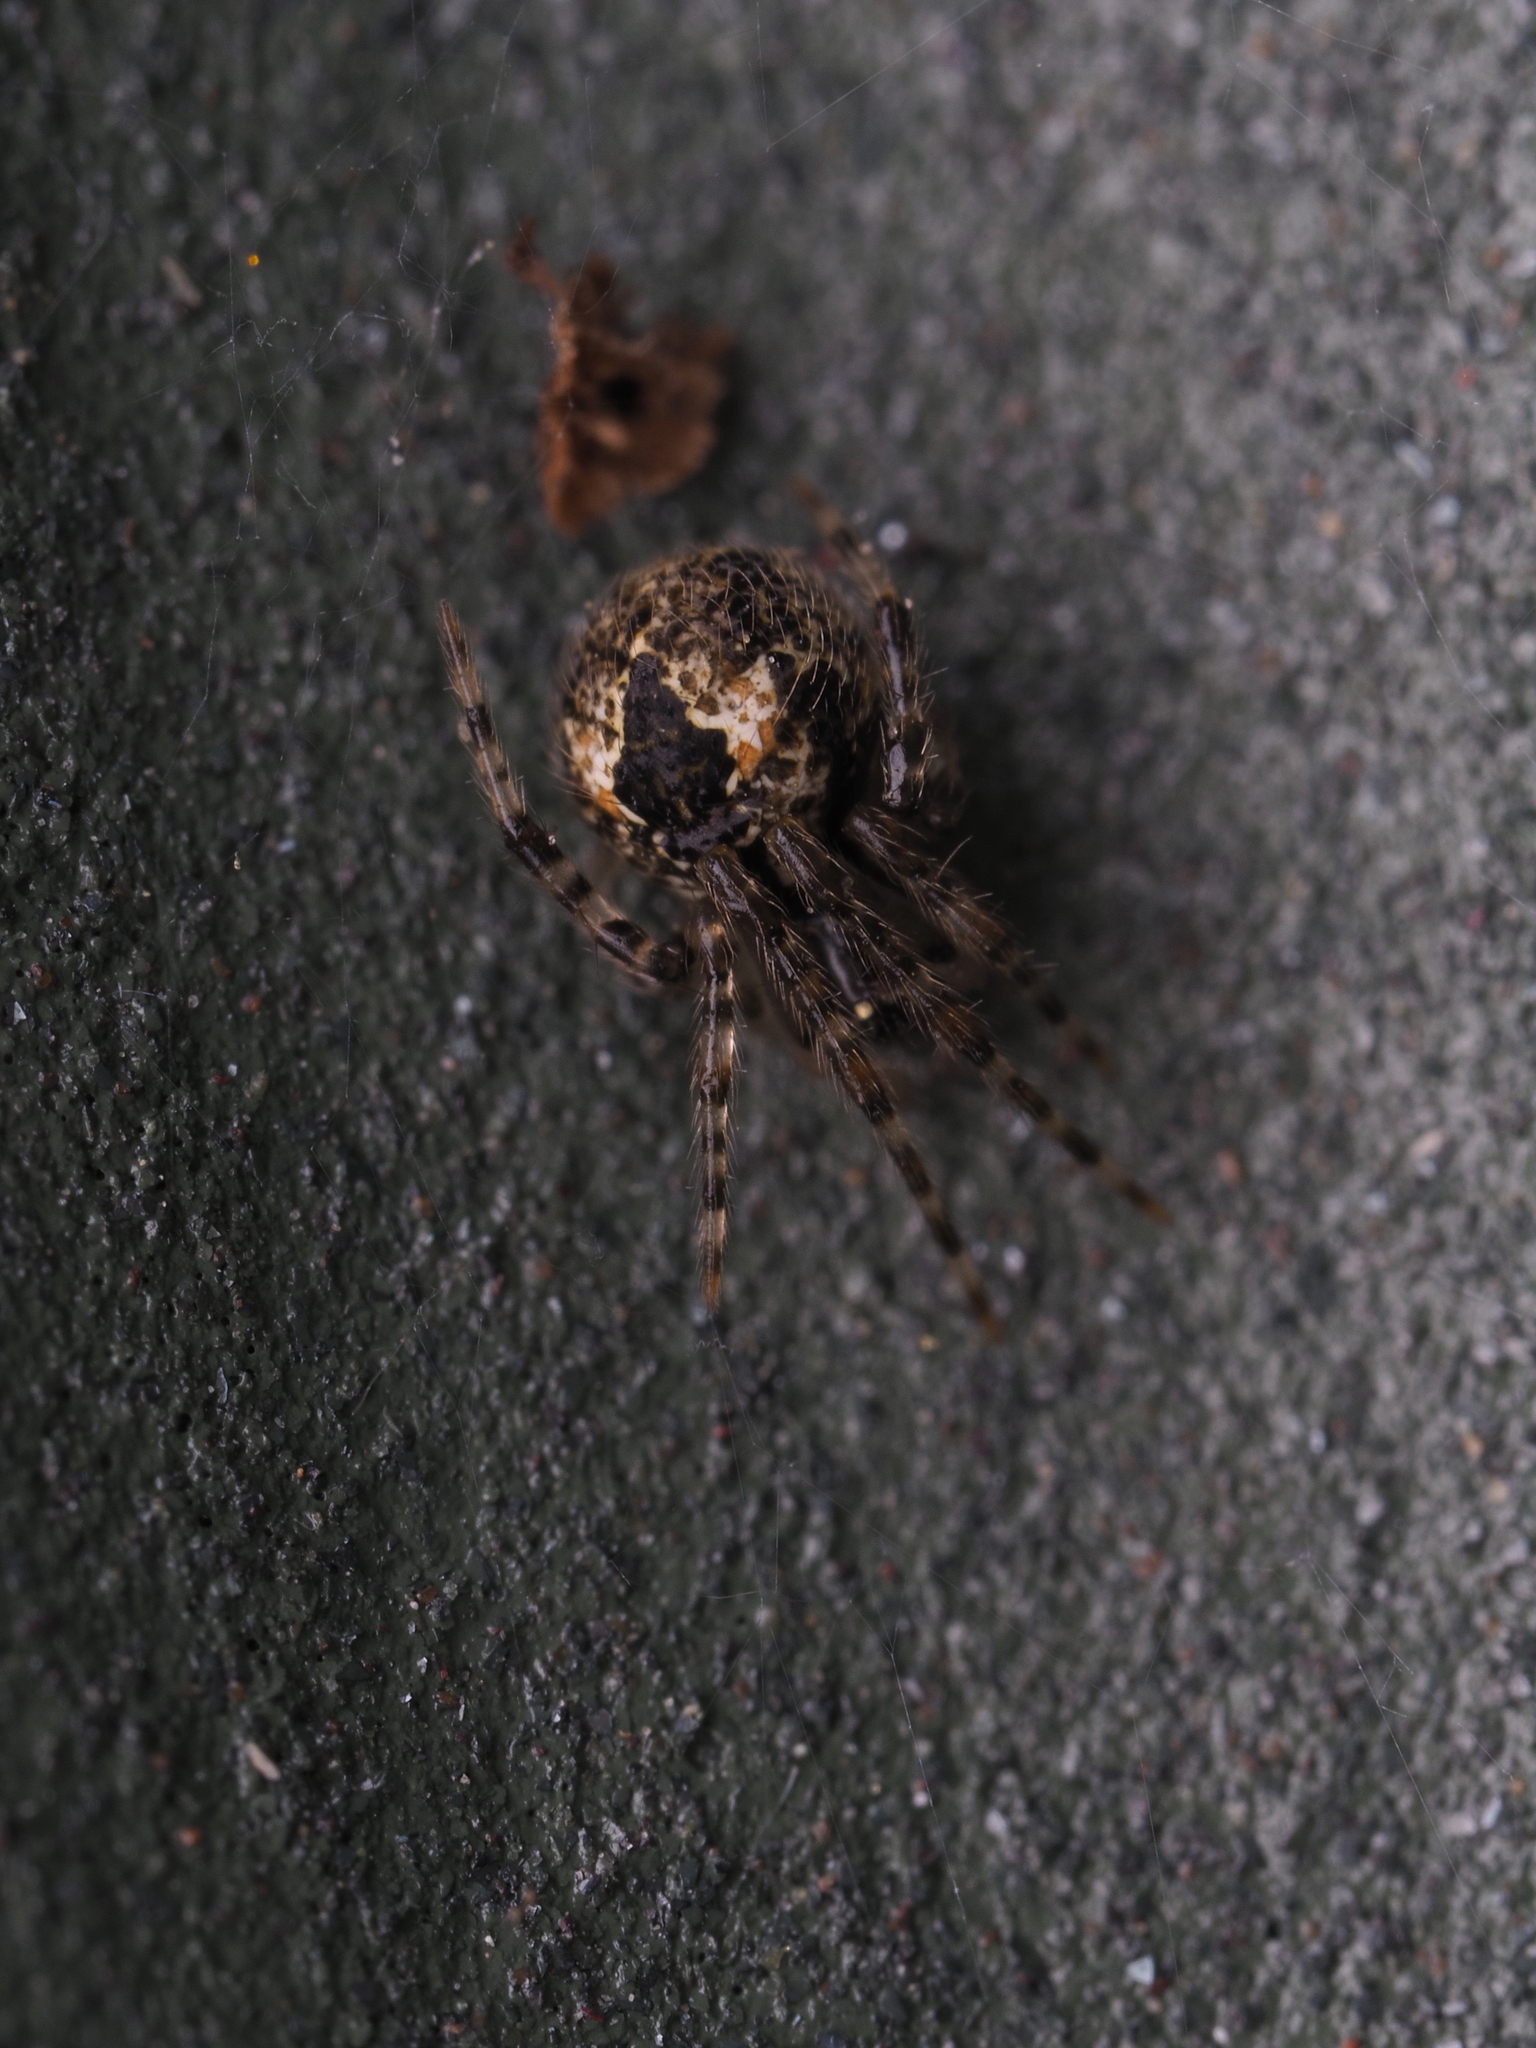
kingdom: Animalia
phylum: Arthropoda
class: Arachnida
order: Araneae
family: Theridiidae
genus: Cryptachaea
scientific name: Cryptachaea veruculata
